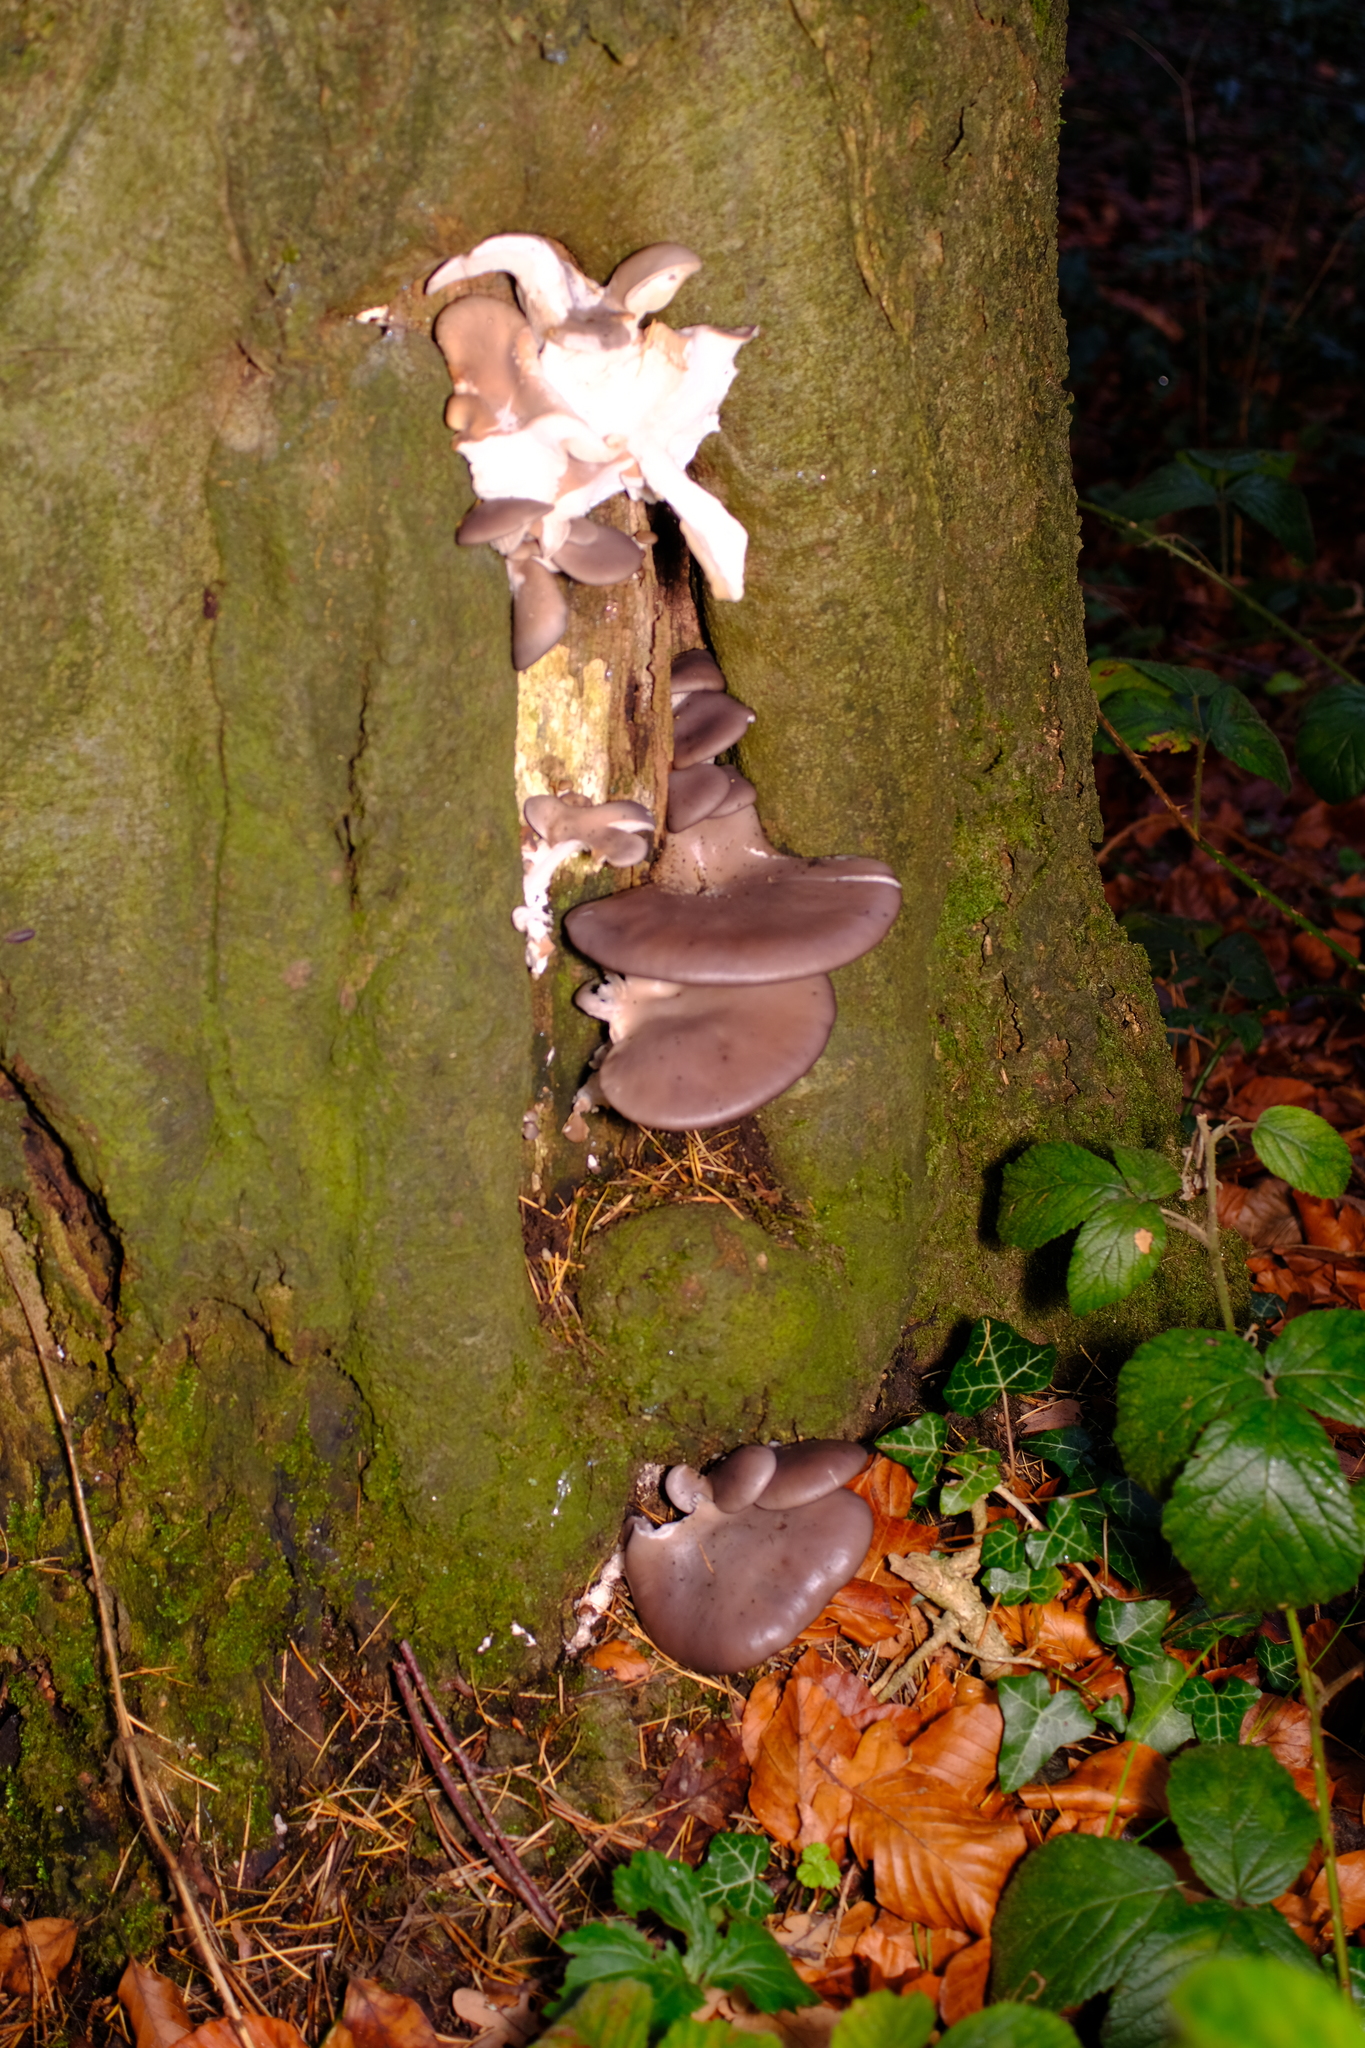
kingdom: Fungi
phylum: Basidiomycota
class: Agaricomycetes
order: Agaricales
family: Pleurotaceae
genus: Pleurotus
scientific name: Pleurotus ostreatus
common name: Oyster mushroom
